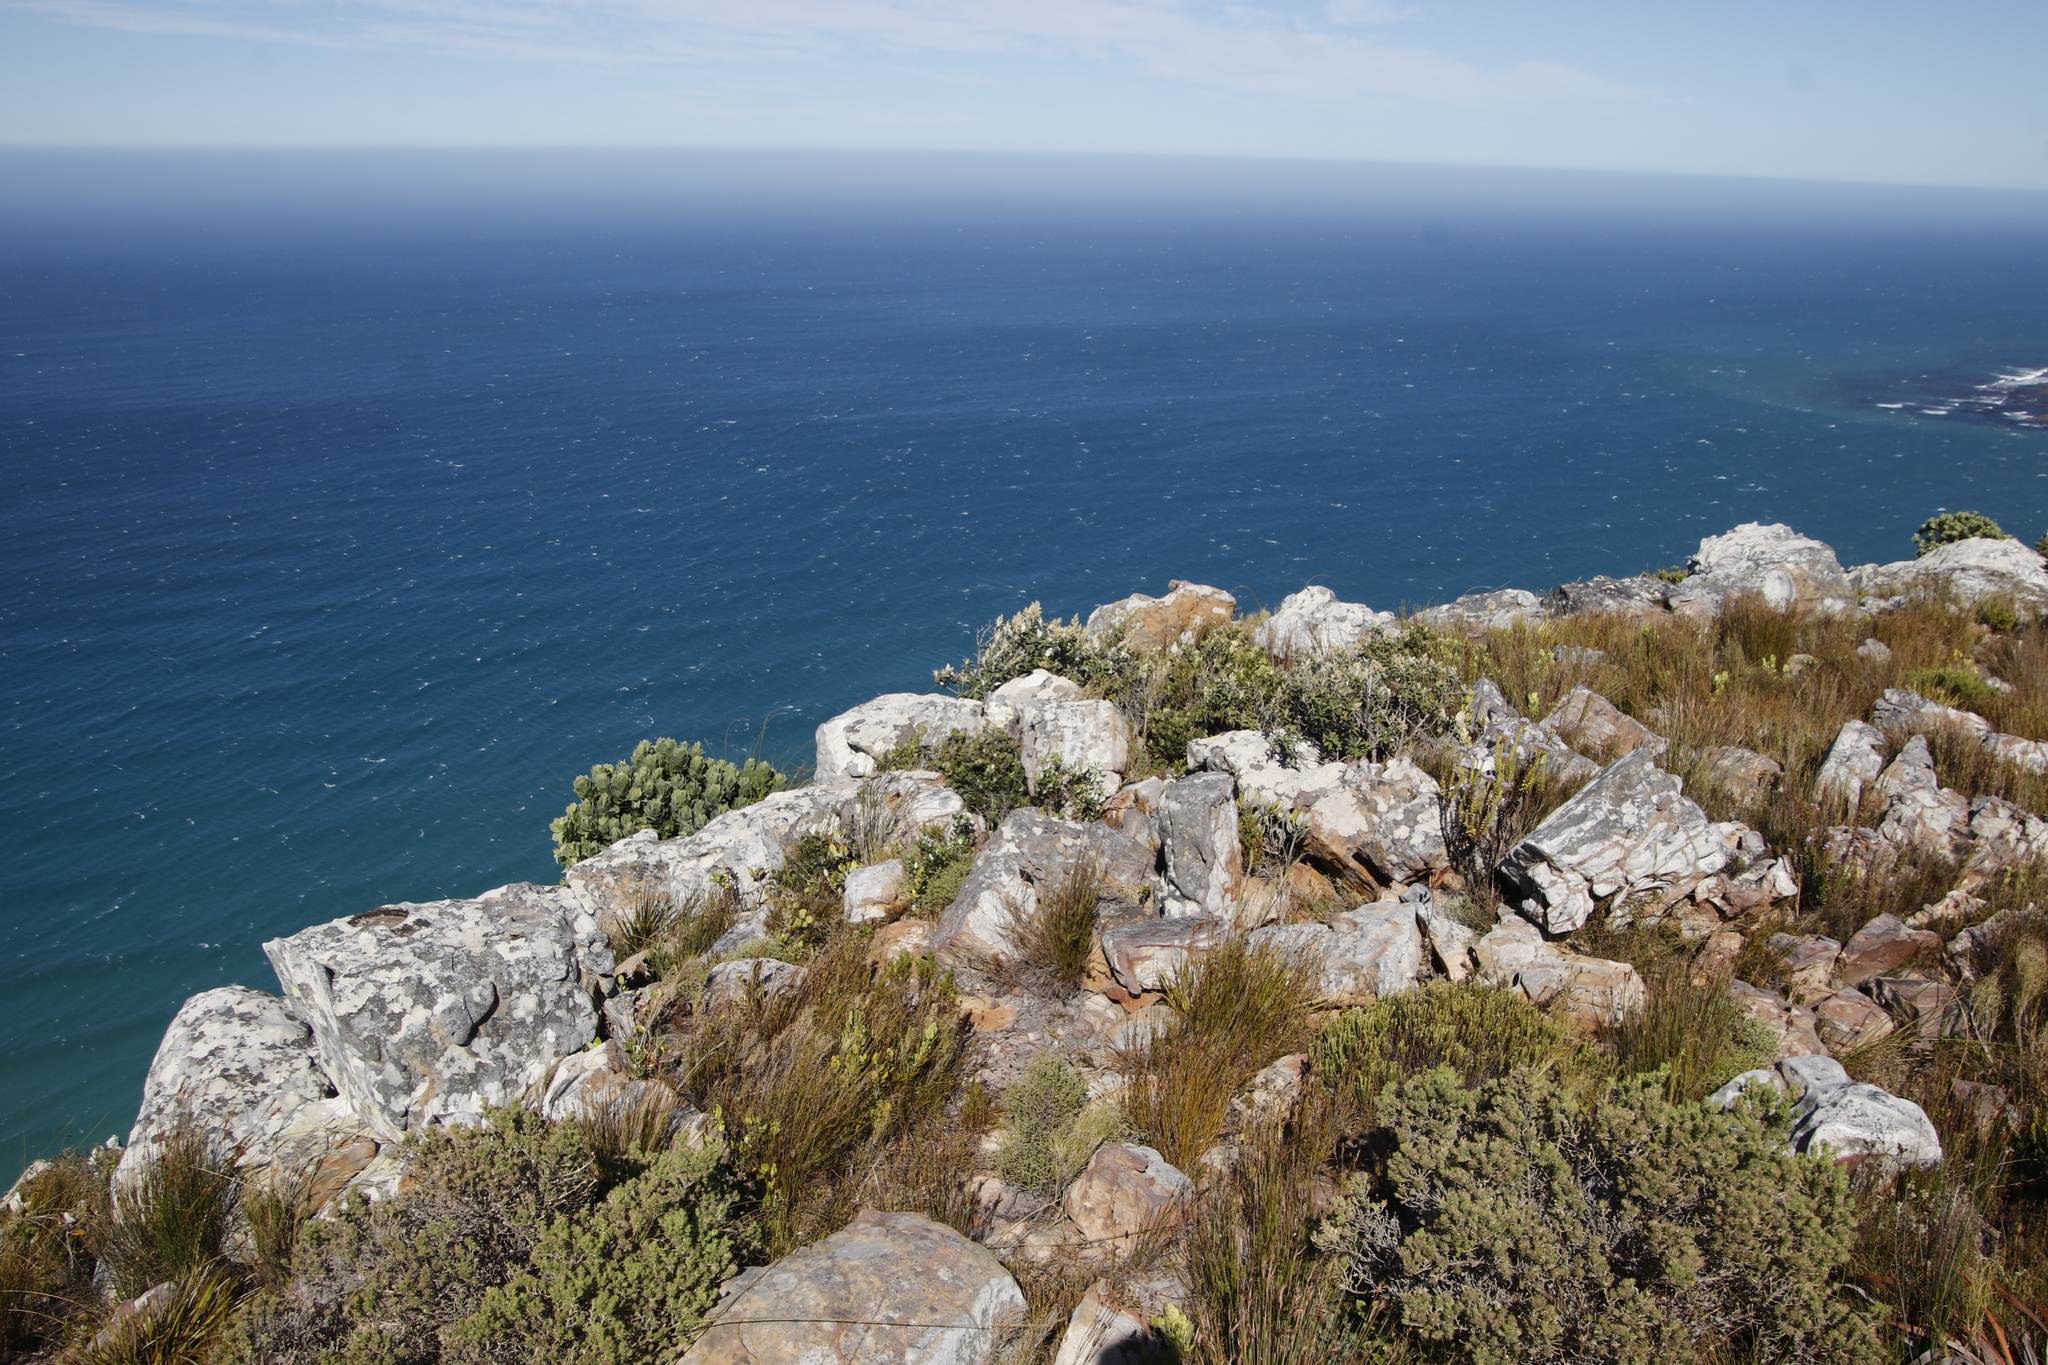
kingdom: Plantae
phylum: Tracheophyta
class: Magnoliopsida
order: Asterales
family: Asteraceae
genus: Tarchonanthus
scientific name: Tarchonanthus littoralis
